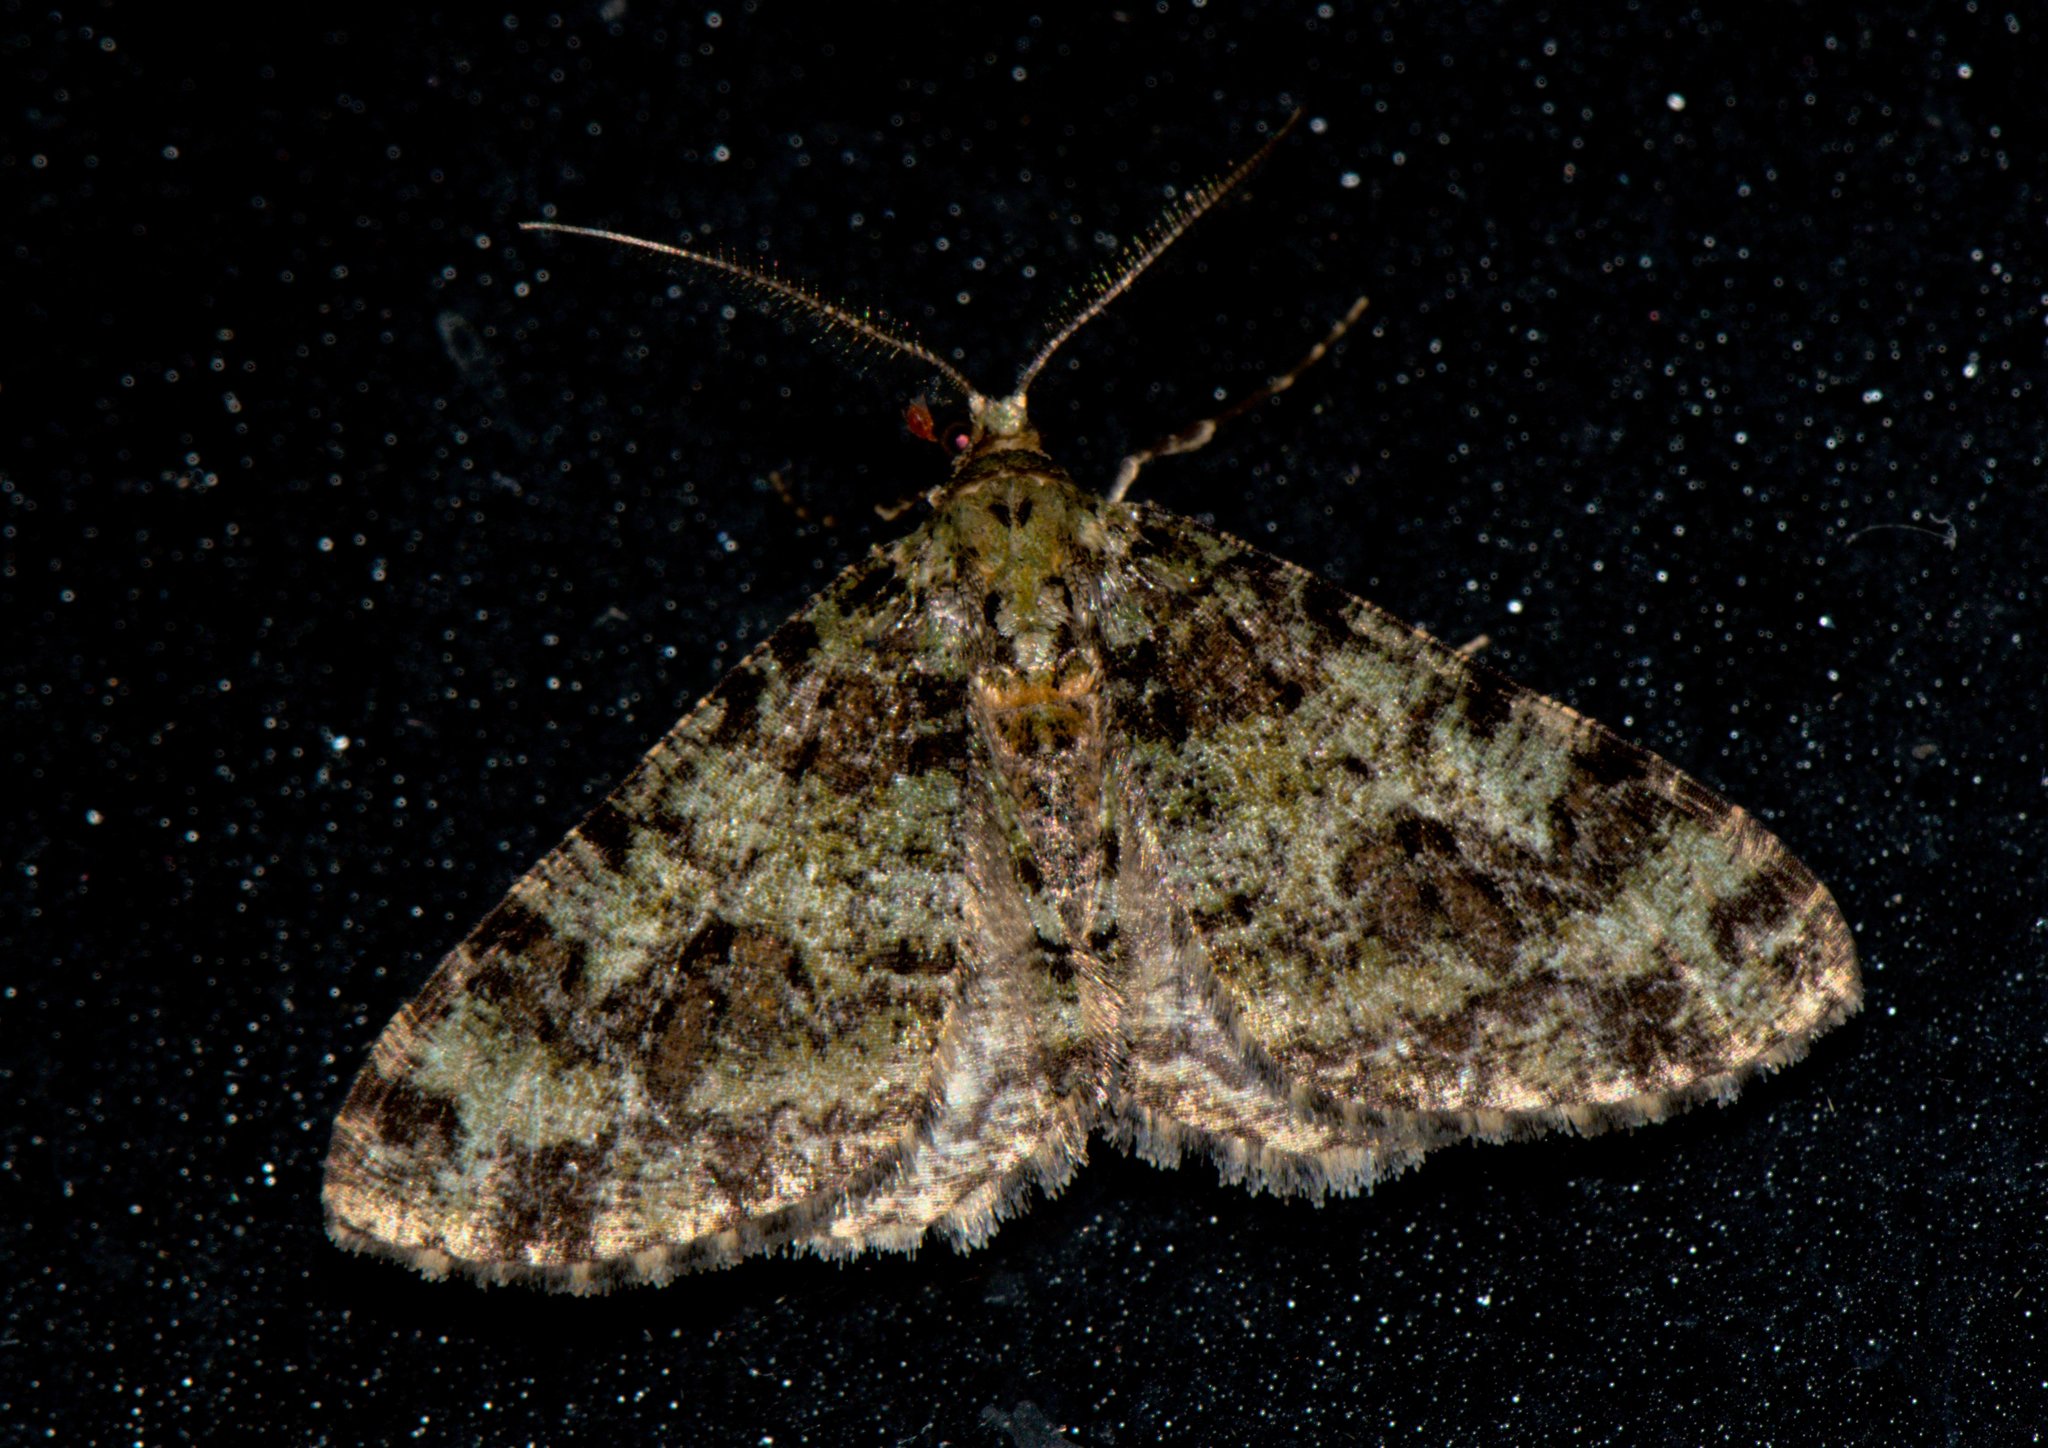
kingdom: Animalia
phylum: Arthropoda
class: Insecta
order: Lepidoptera
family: Geometridae
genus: Myrioblephara
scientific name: Myrioblephara duplexa
